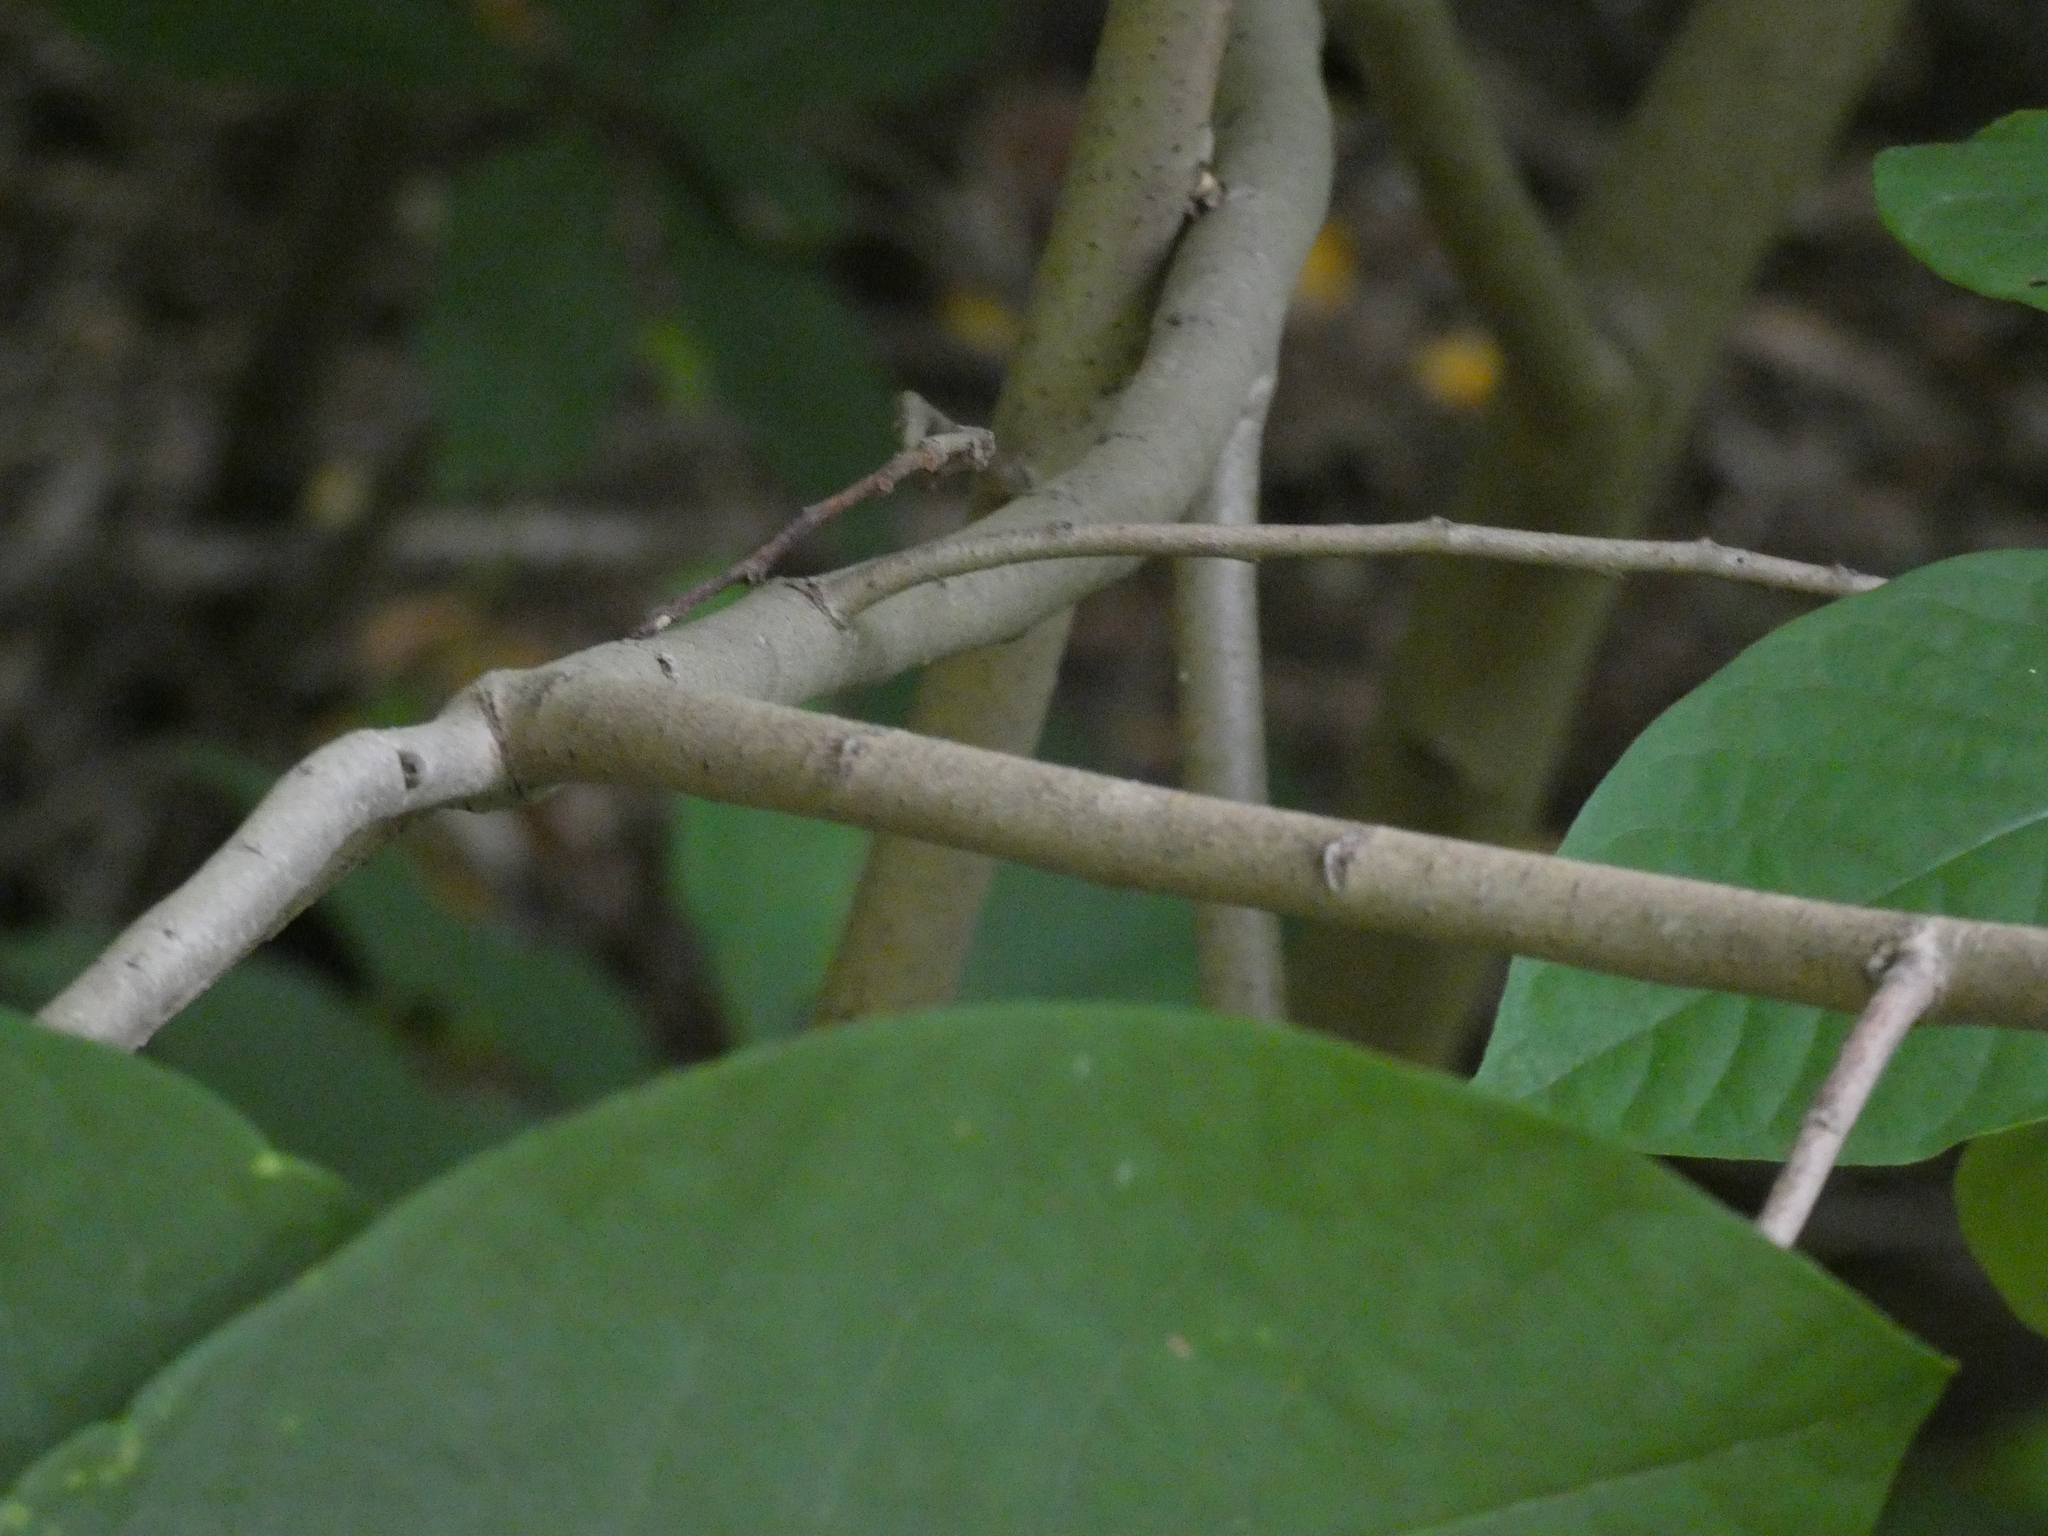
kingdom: Plantae
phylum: Tracheophyta
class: Magnoliopsida
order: Magnoliales
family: Annonaceae
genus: Asimina
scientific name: Asimina triloba
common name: Dog-banana
